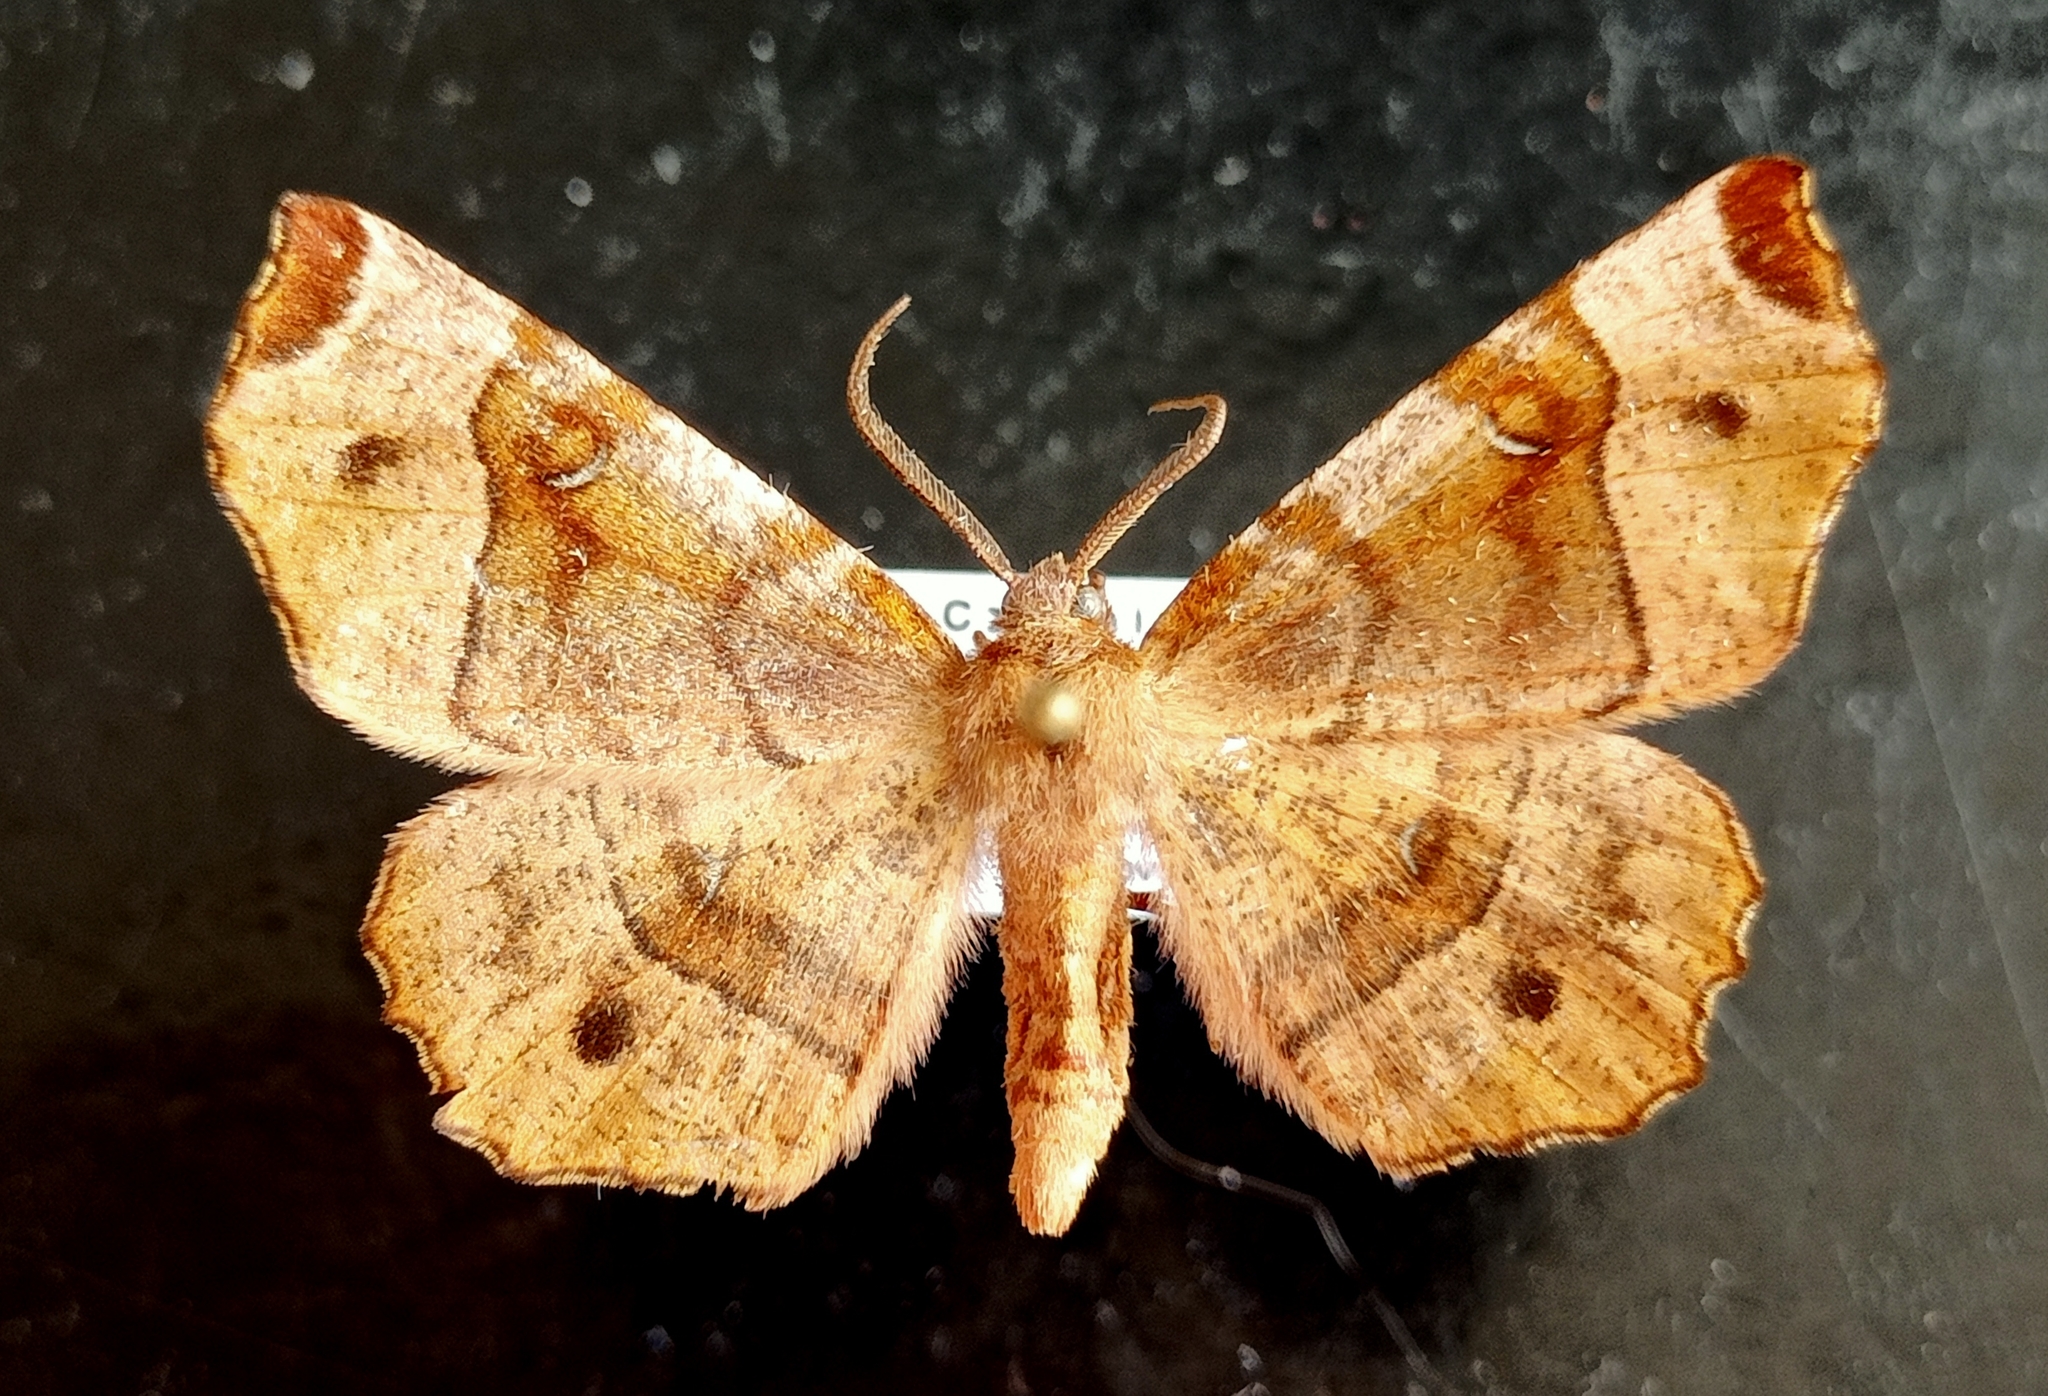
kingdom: Animalia
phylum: Arthropoda
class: Insecta
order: Lepidoptera
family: Geometridae
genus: Selenia
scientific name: Selenia tetralunaria
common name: Purple thorn
